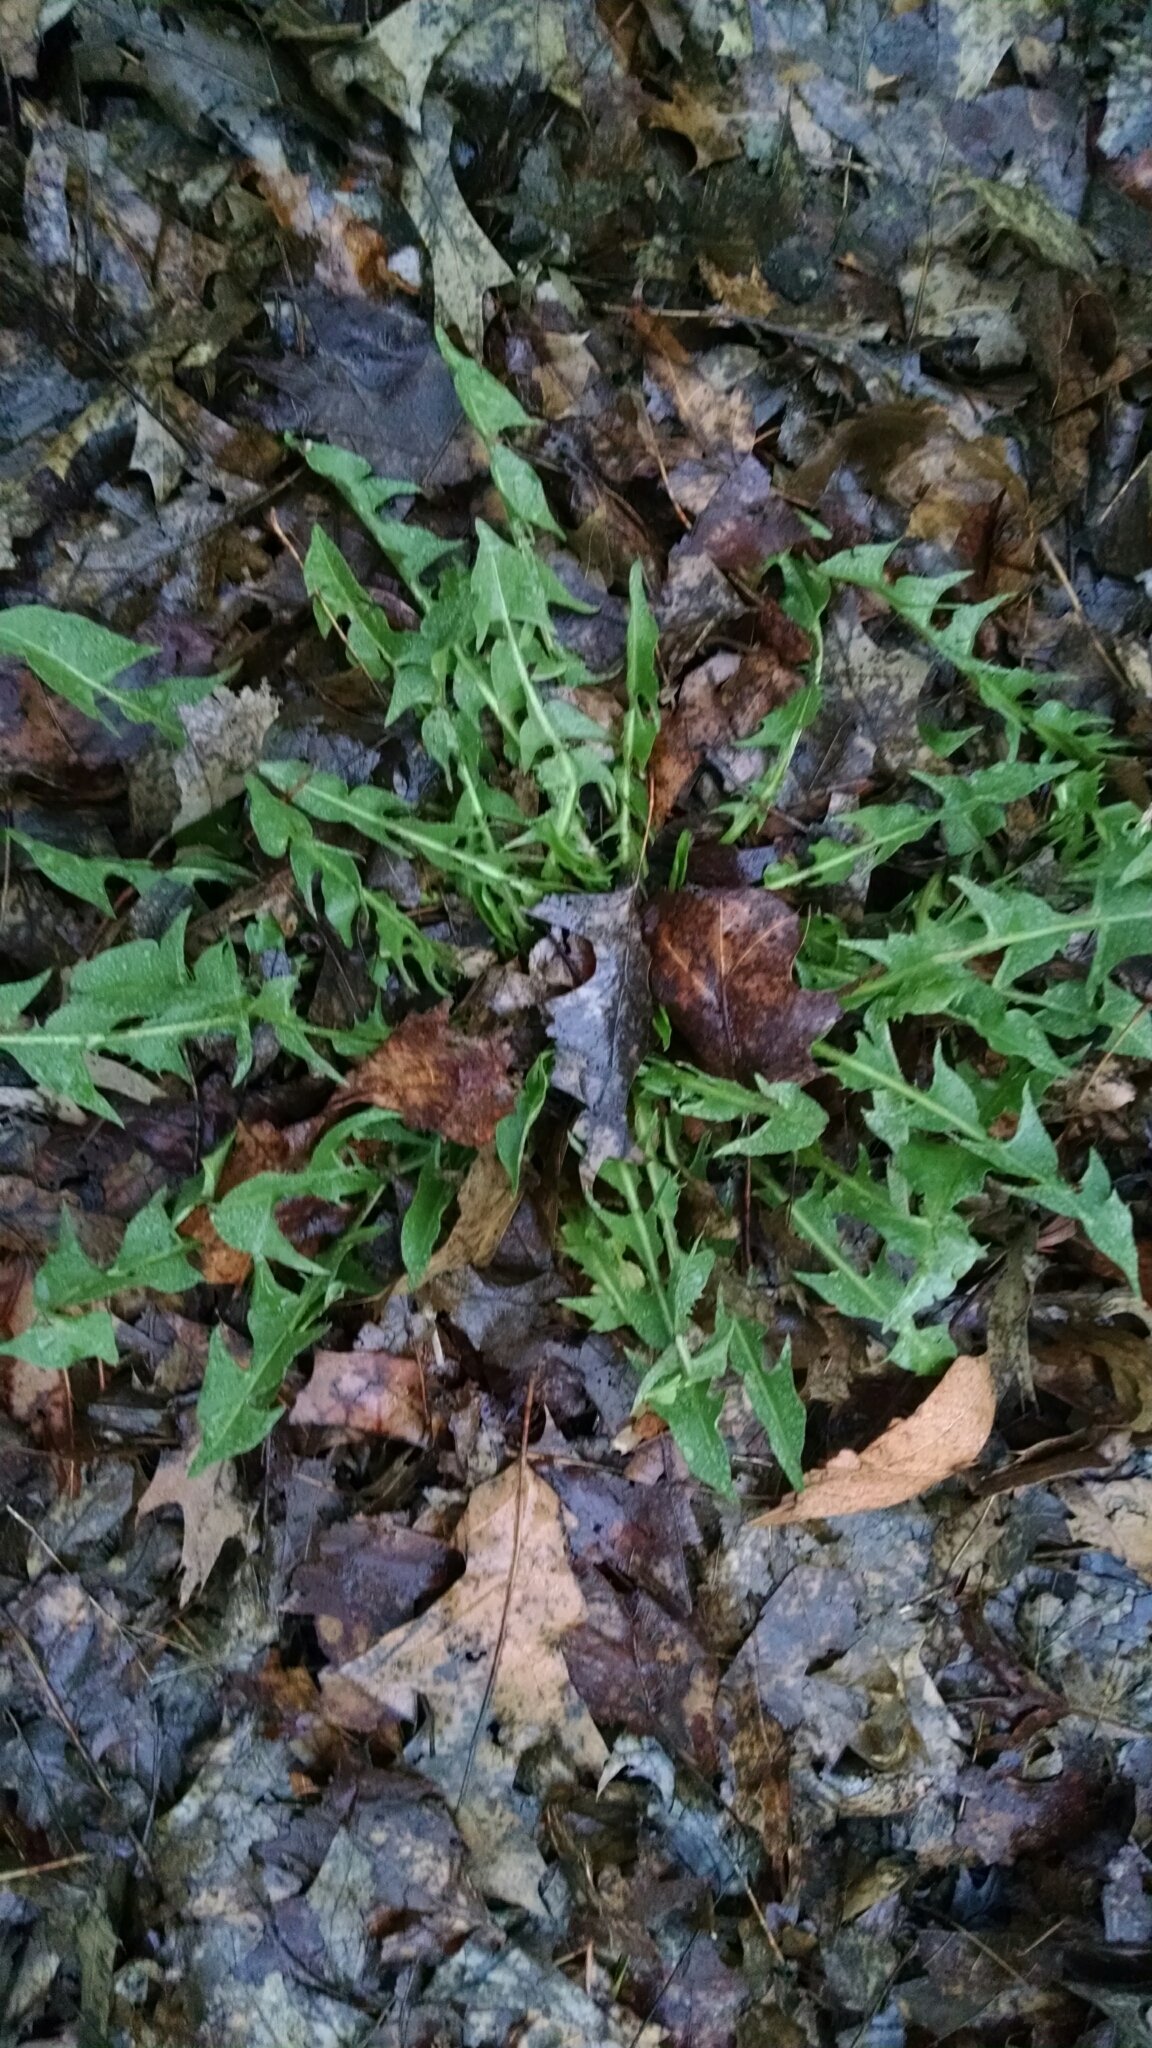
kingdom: Plantae
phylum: Tracheophyta
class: Magnoliopsida
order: Asterales
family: Asteraceae
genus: Taraxacum
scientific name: Taraxacum officinale
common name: Common dandelion
